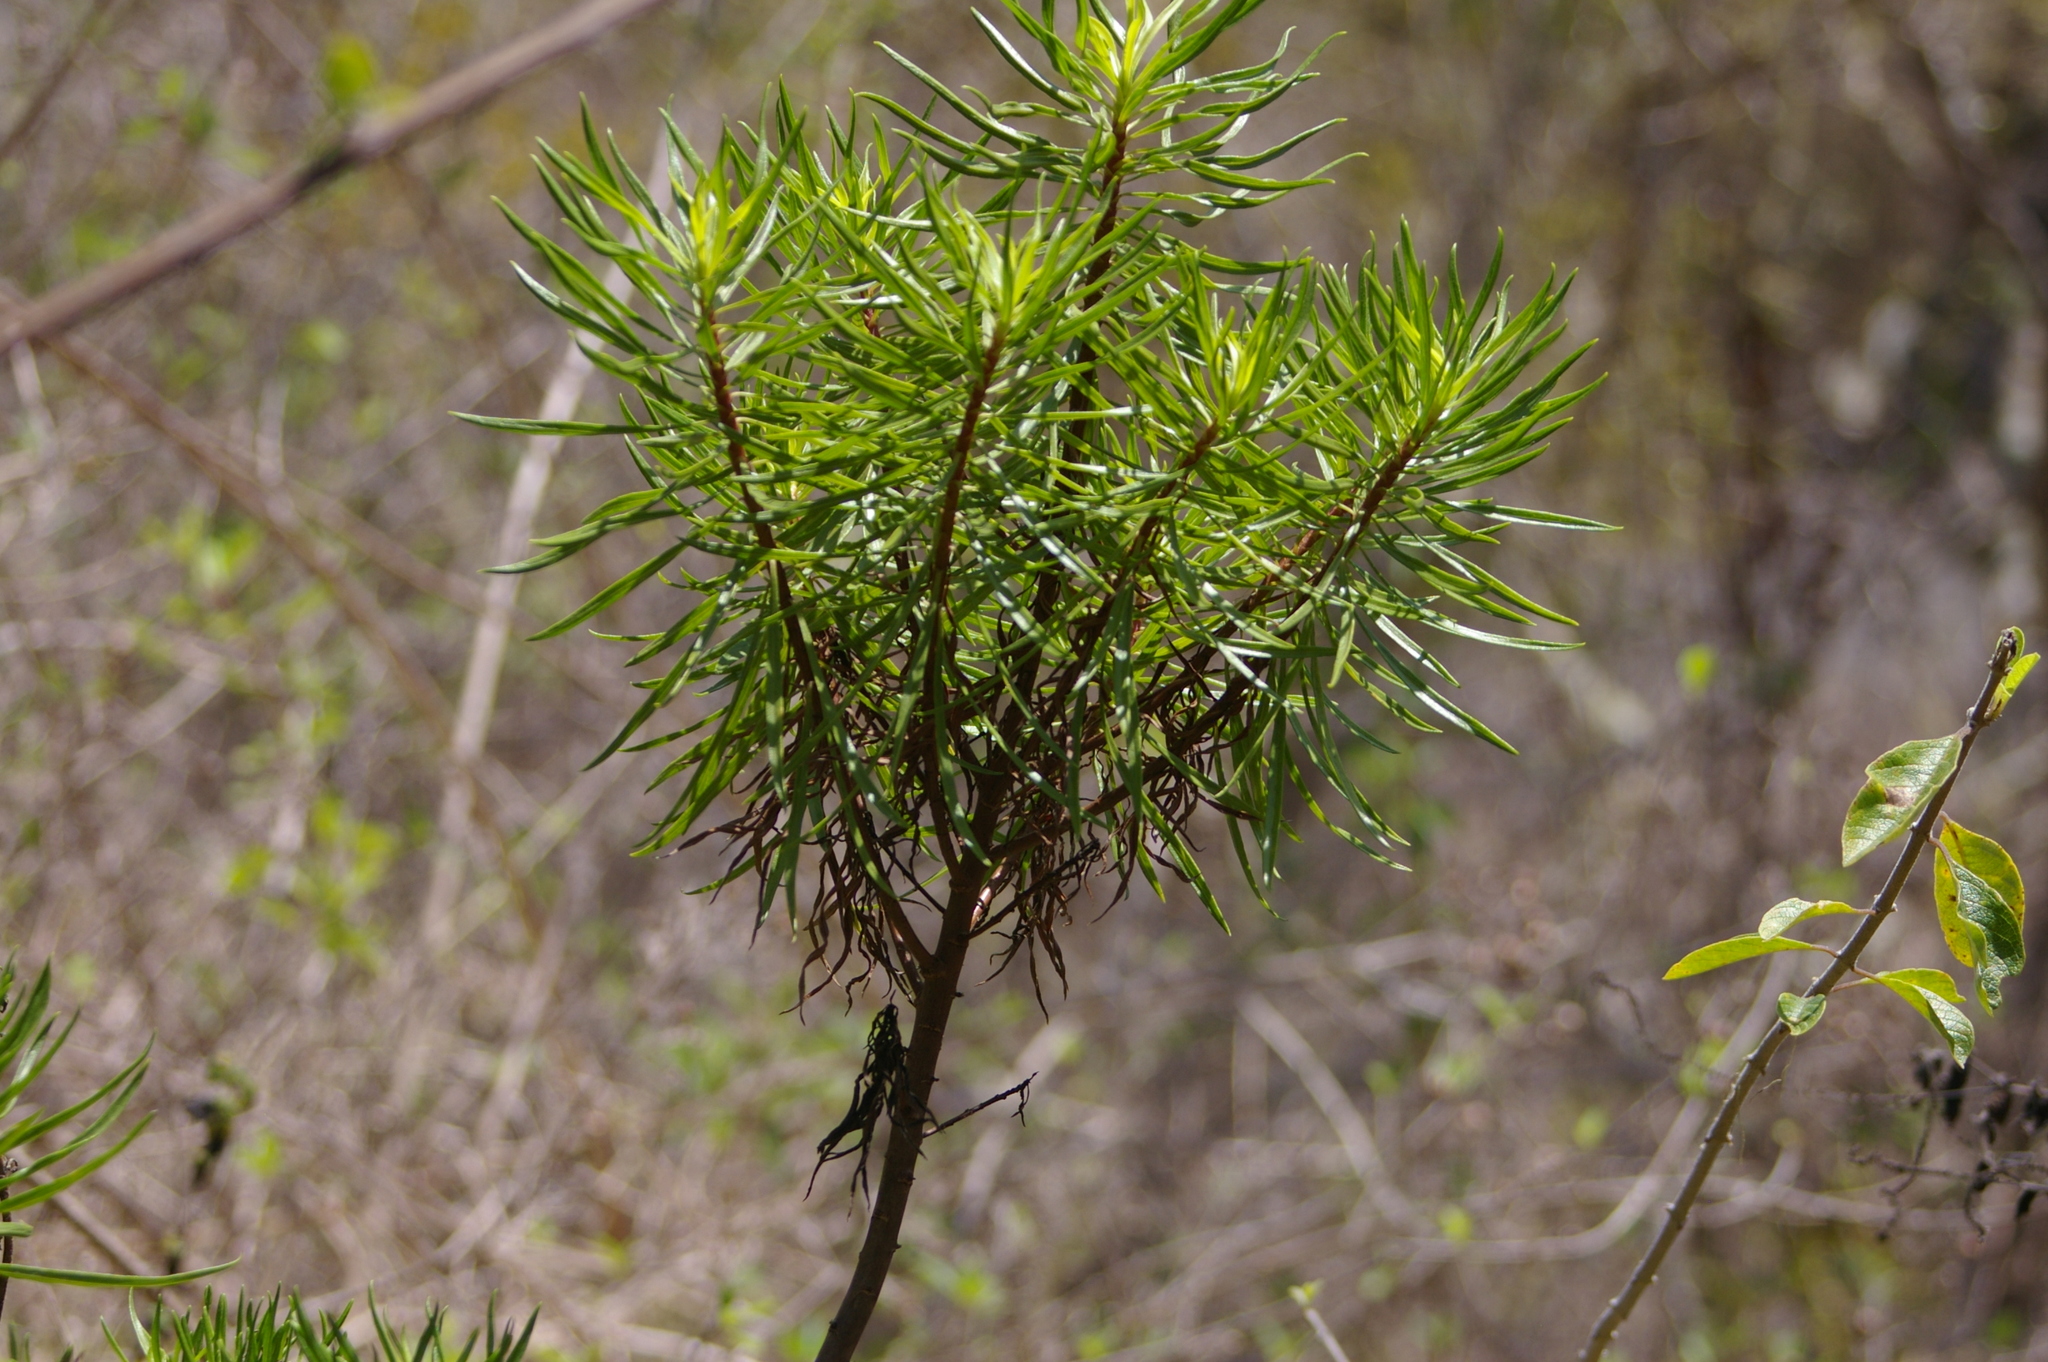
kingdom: Plantae
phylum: Tracheophyta
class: Magnoliopsida
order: Asterales
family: Asteraceae
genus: Erigeron
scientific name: Erigeron tenuifolius
